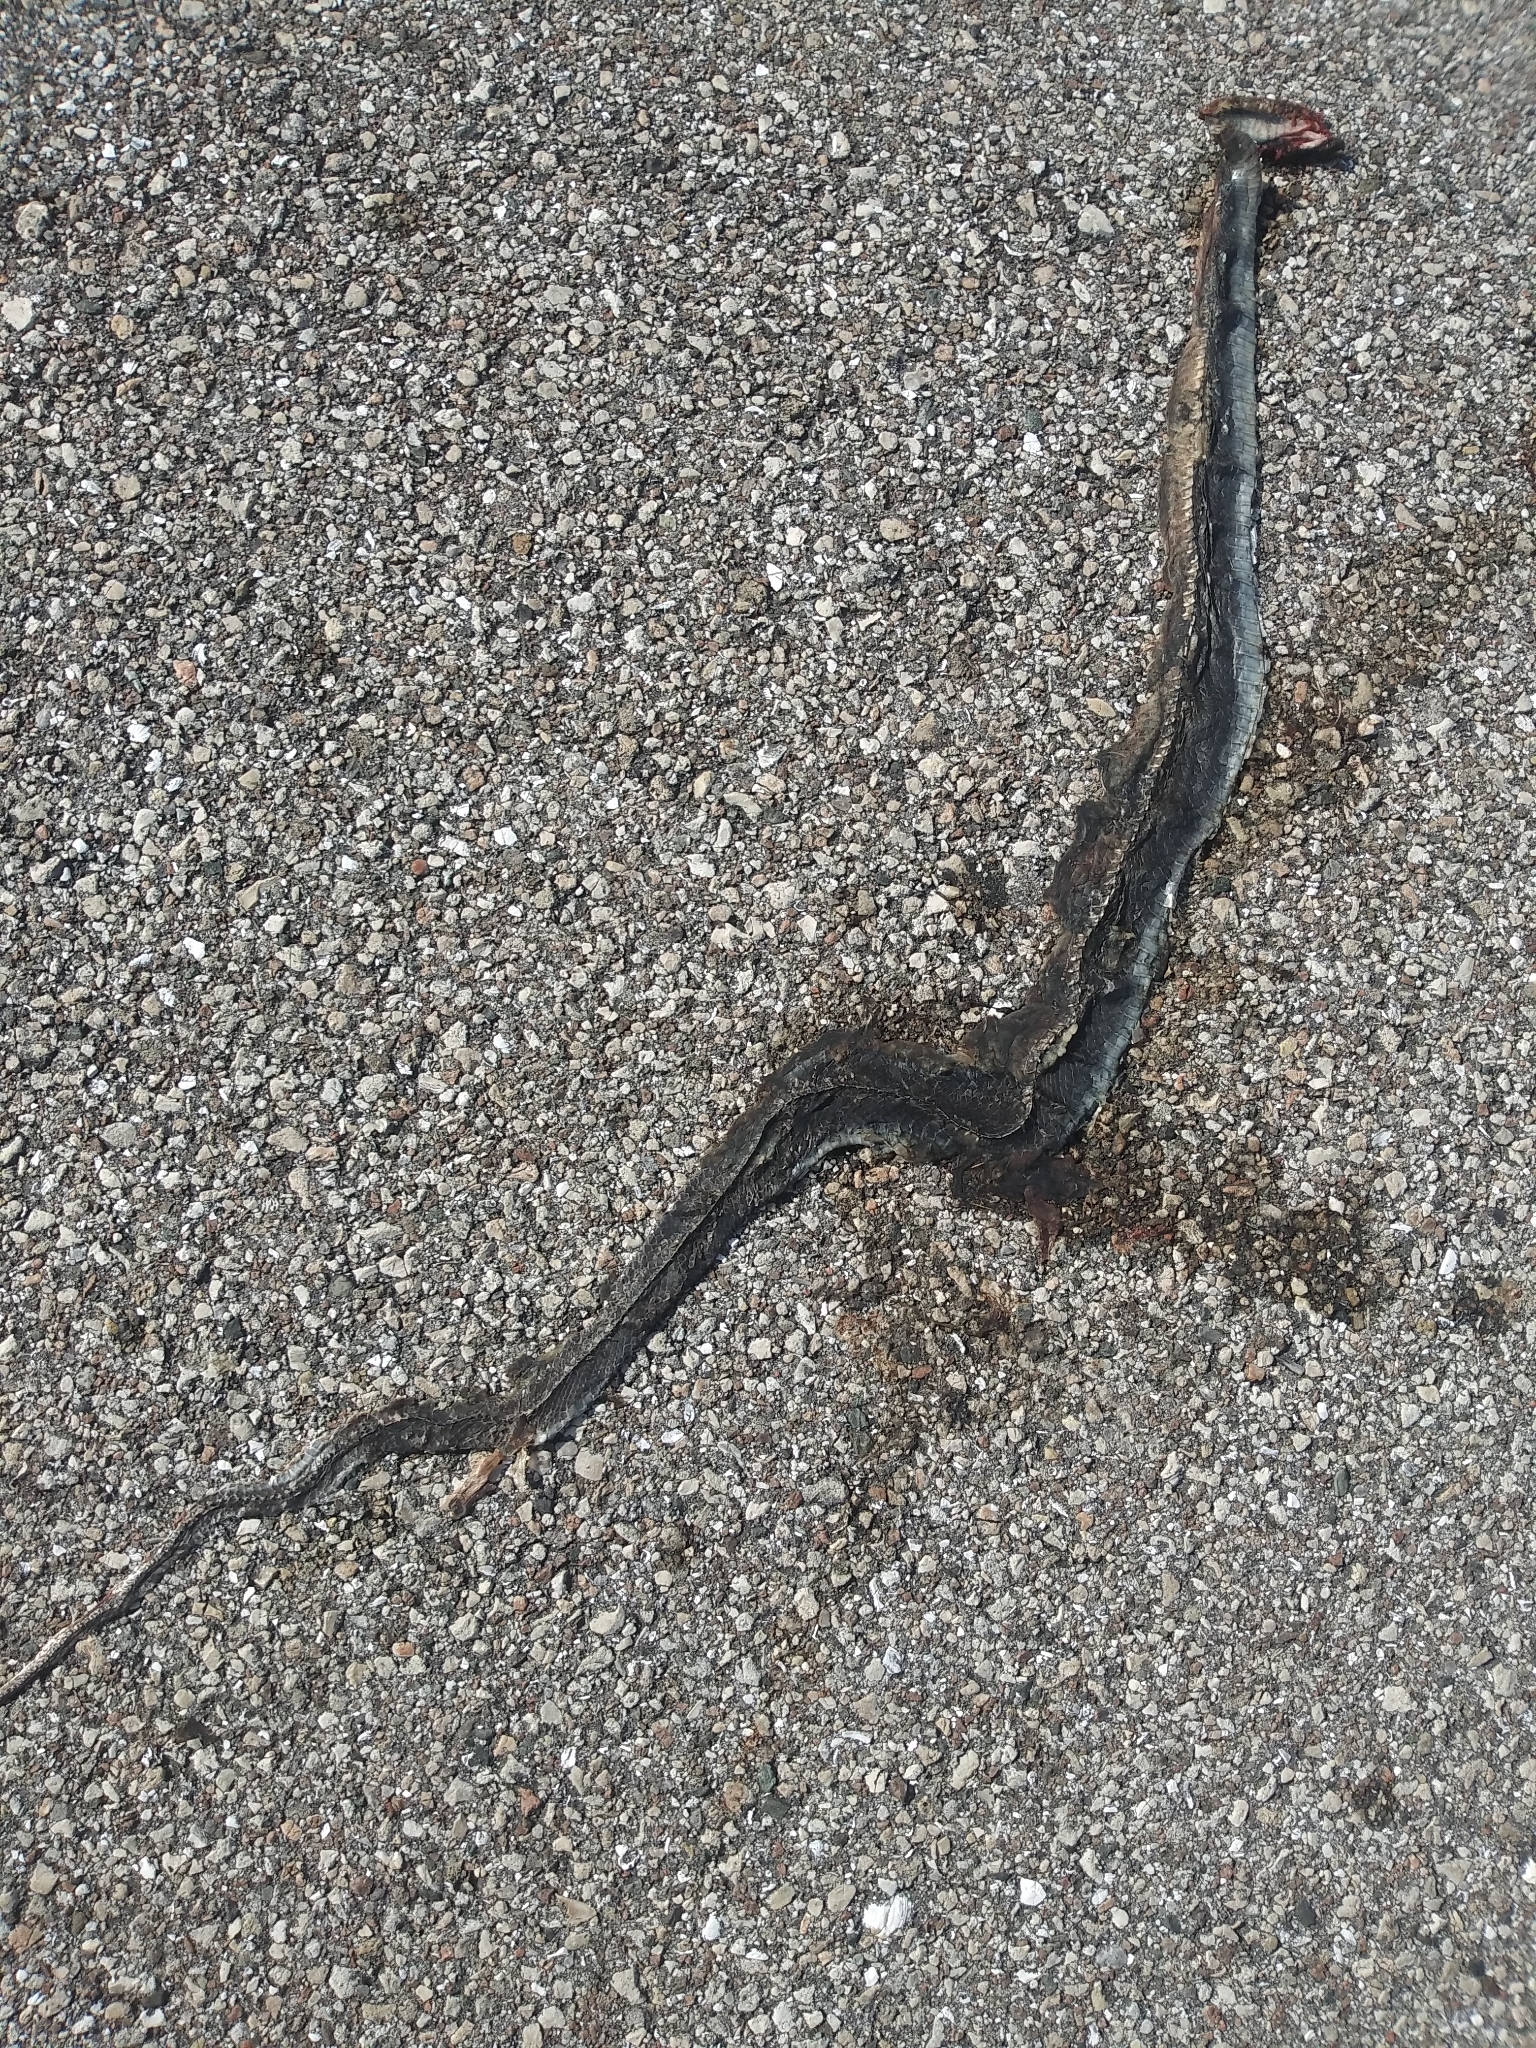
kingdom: Animalia
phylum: Chordata
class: Squamata
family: Colubridae
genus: Coluber
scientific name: Coluber constrictor
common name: Eastern racer
